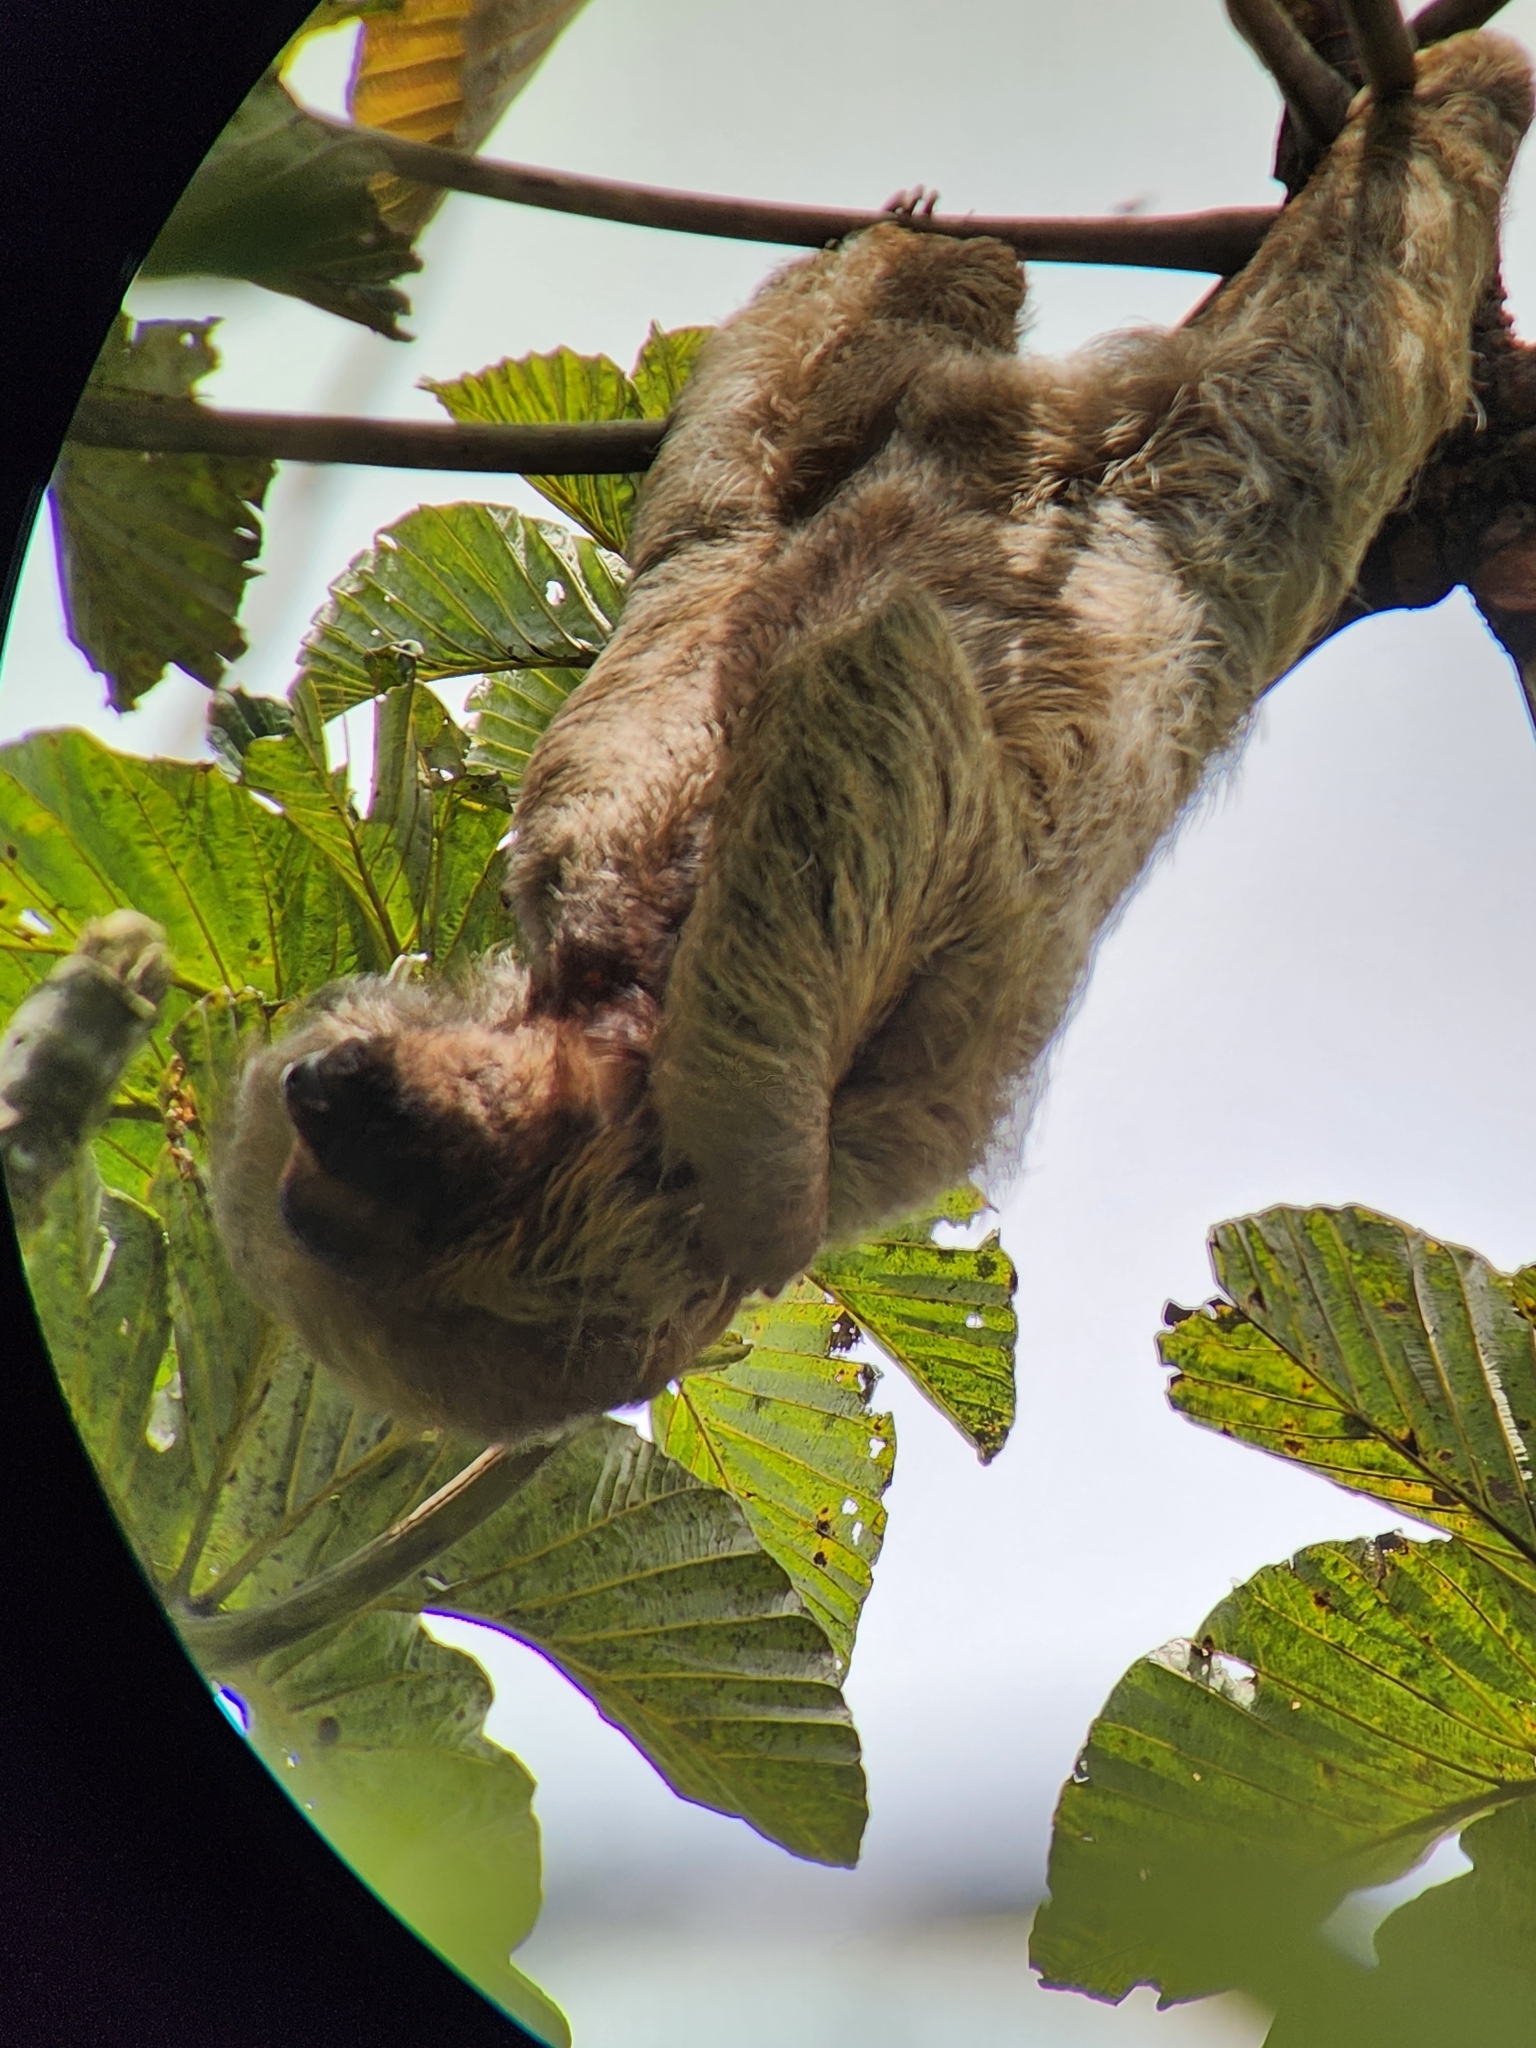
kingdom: Animalia
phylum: Chordata
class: Mammalia
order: Pilosa
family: Bradypodidae
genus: Bradypus
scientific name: Bradypus variegatus
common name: Brown-throated three-toed sloth
